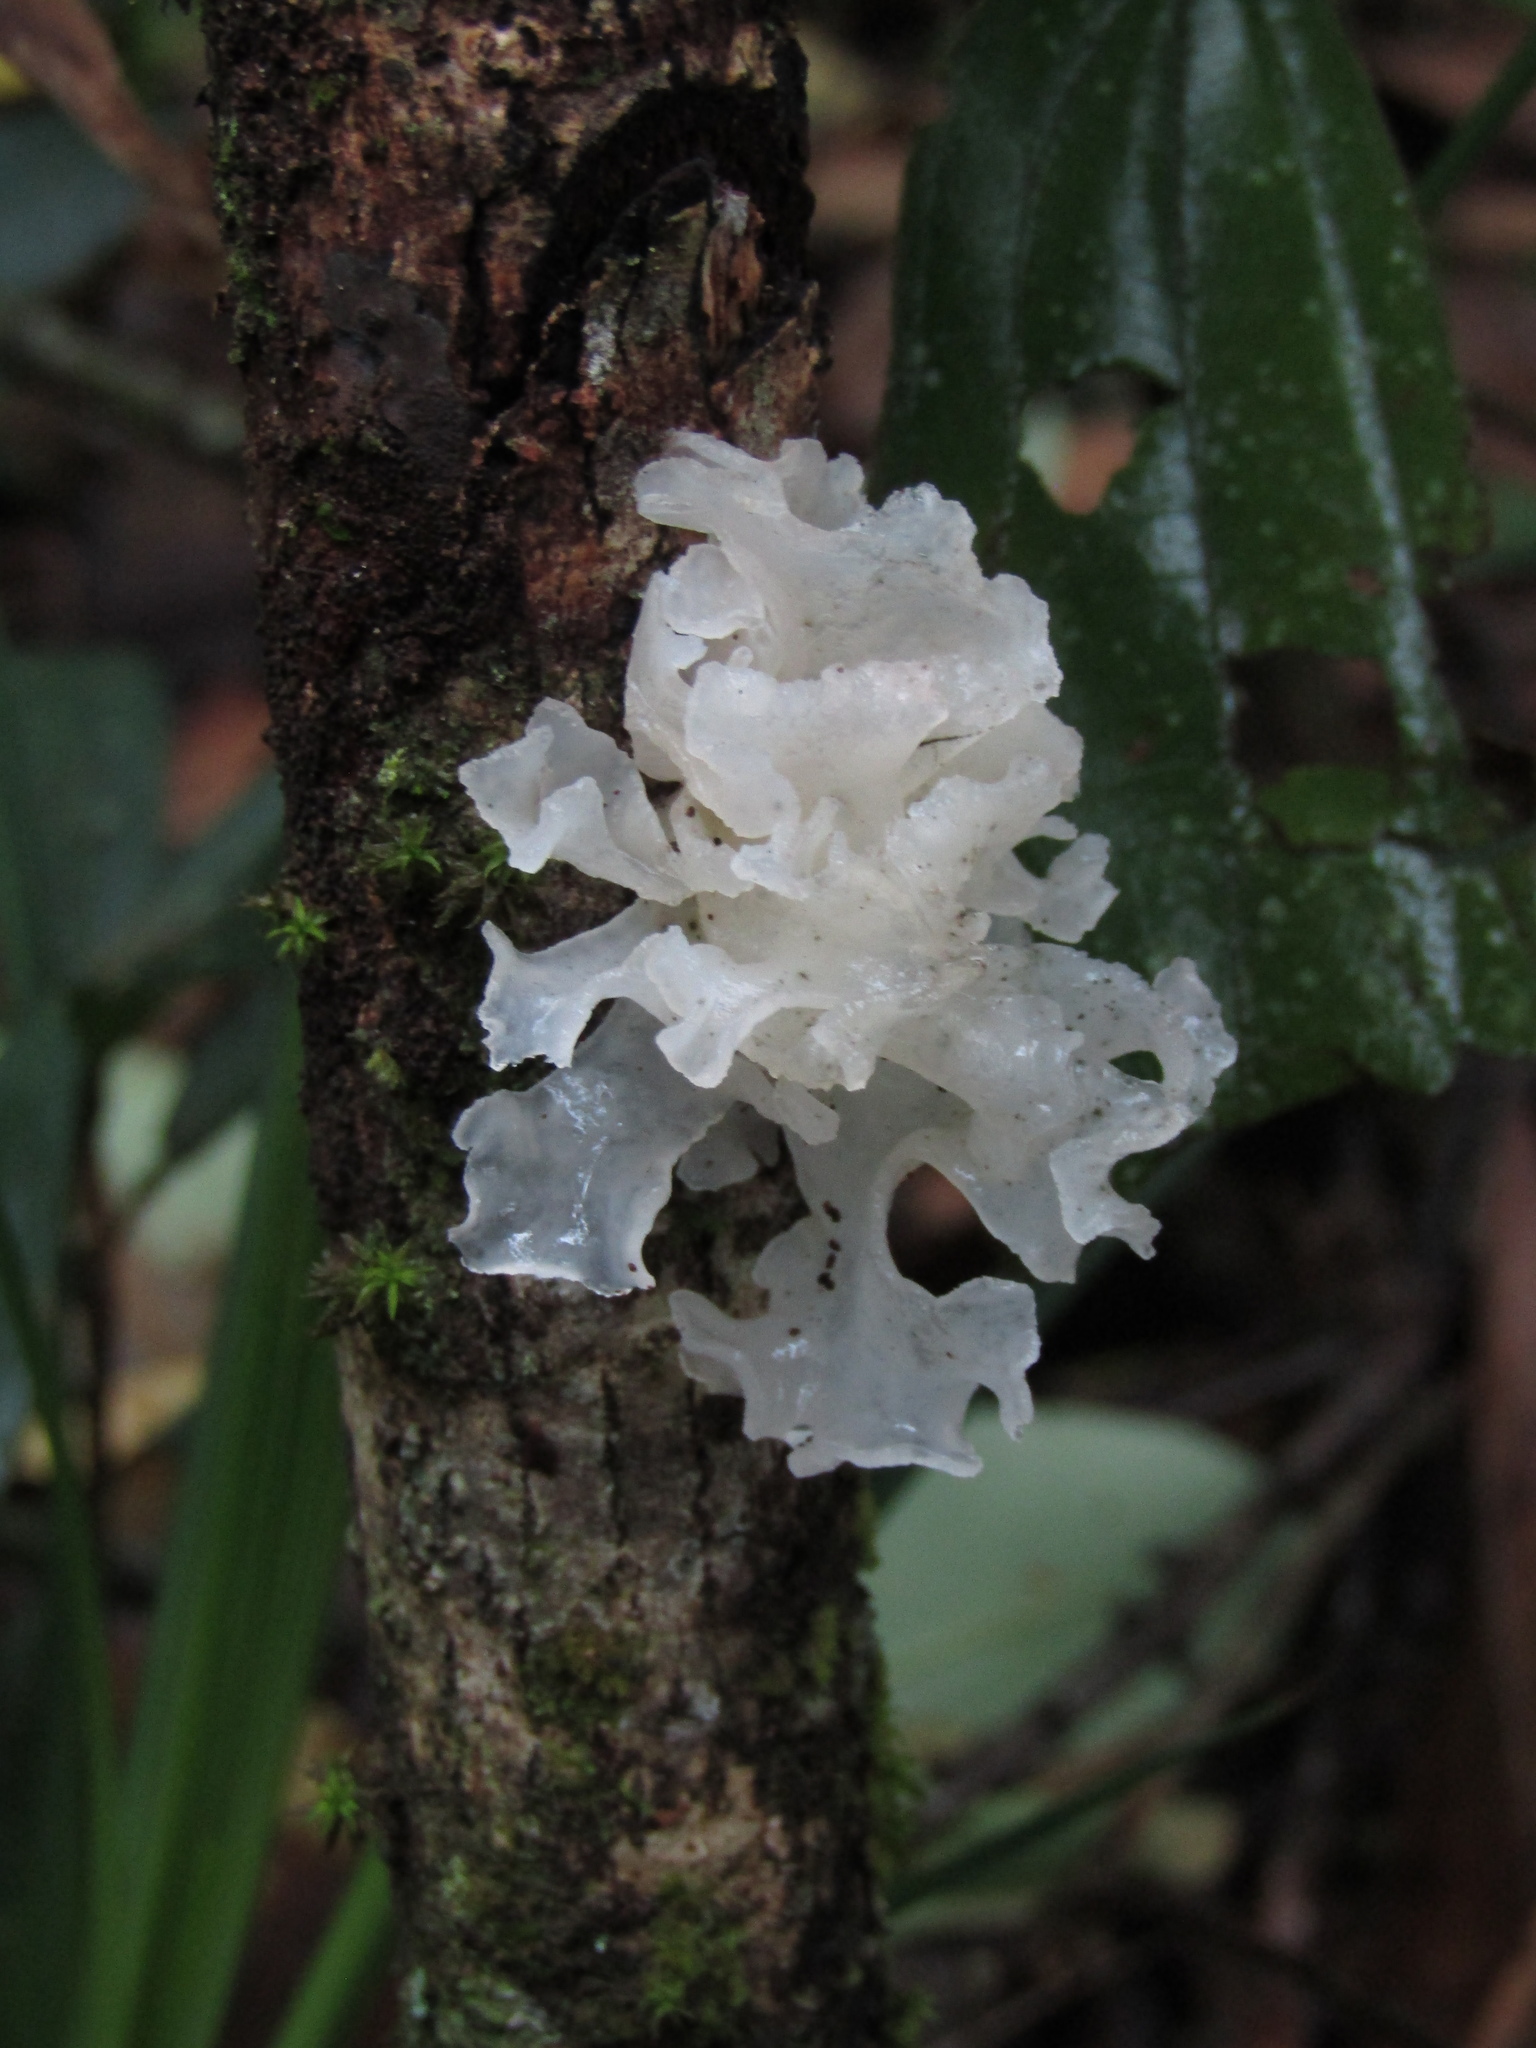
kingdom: Fungi
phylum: Basidiomycota
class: Tremellomycetes
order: Tremellales
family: Tremellaceae
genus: Tremella
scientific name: Tremella fuciformis
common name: Snow fungus
